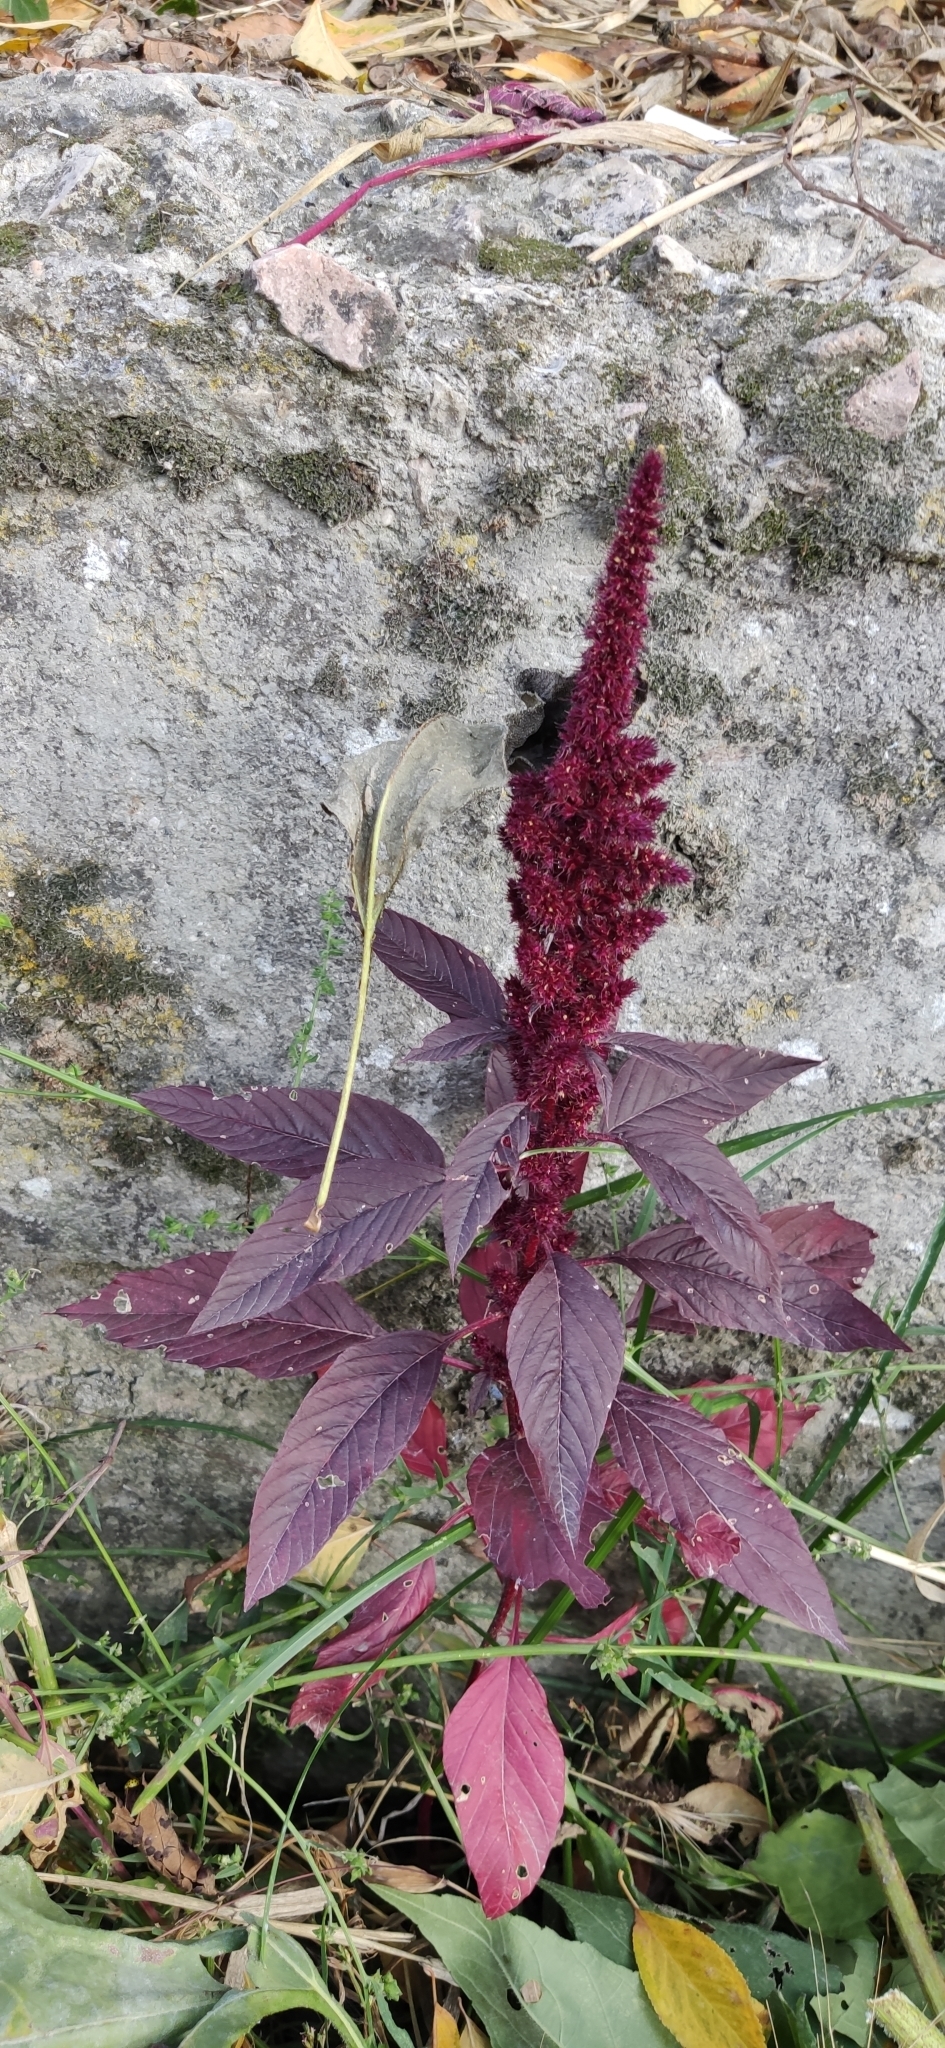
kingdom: Plantae
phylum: Tracheophyta
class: Magnoliopsida
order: Caryophyllales
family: Amaranthaceae
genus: Amaranthus
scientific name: Amaranthus cruentus
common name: Purple amaranth
